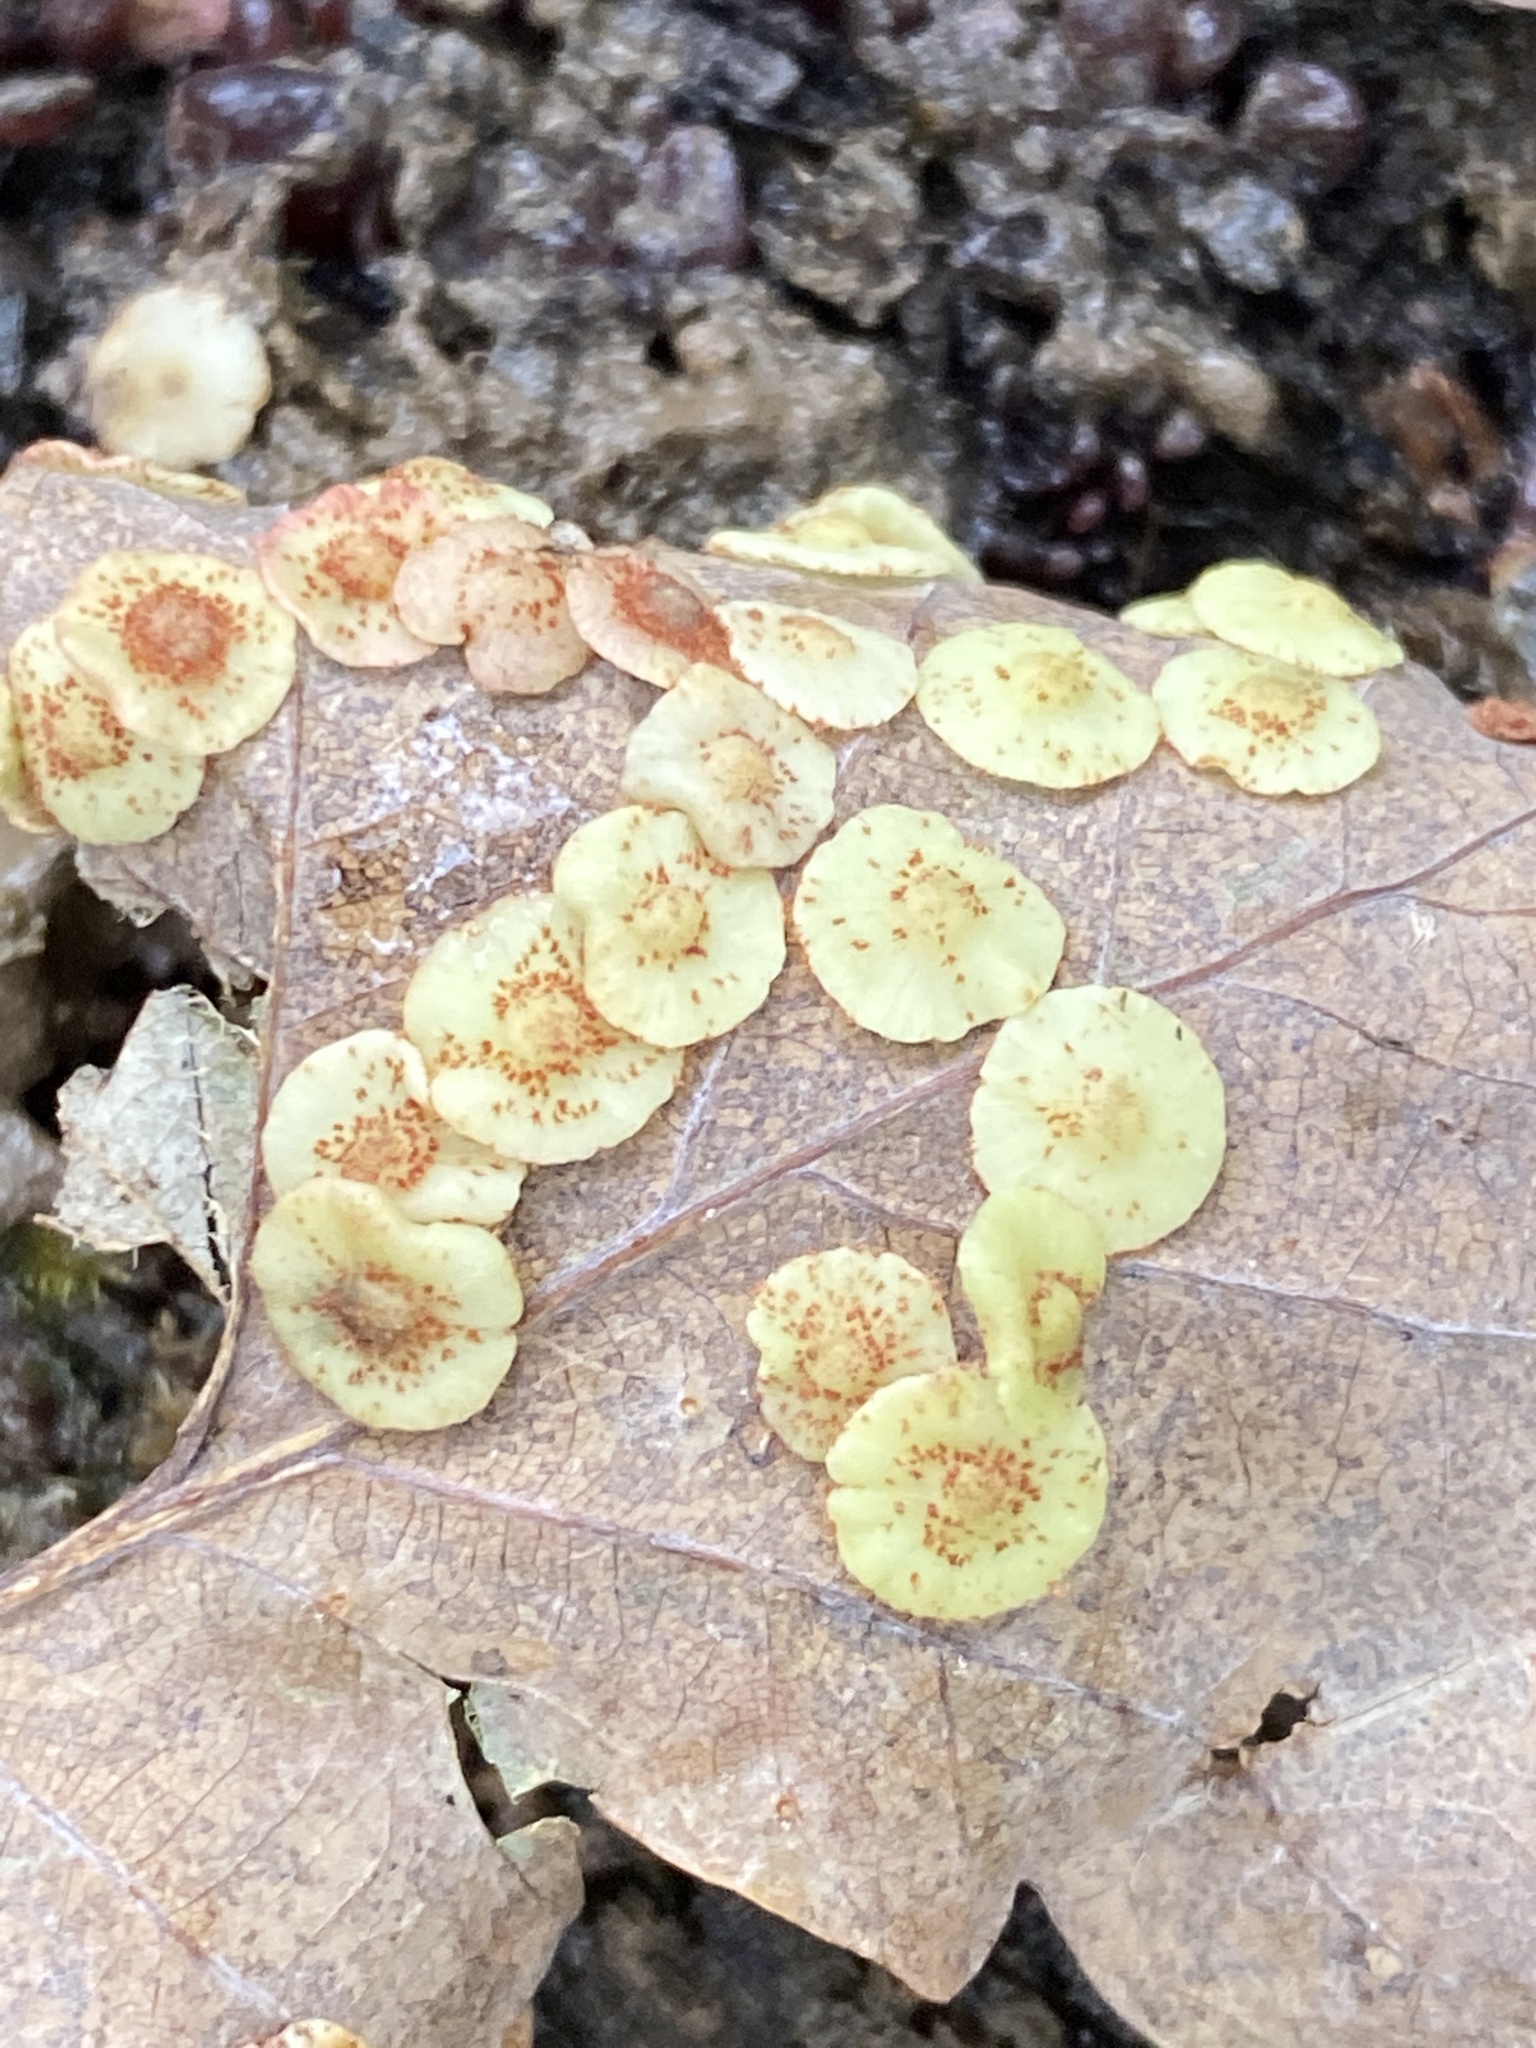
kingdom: Animalia
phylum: Arthropoda
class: Insecta
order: Hymenoptera
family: Cynipidae
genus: Neuroterus
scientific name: Neuroterus quercusbaccarum
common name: Common spangle gall
